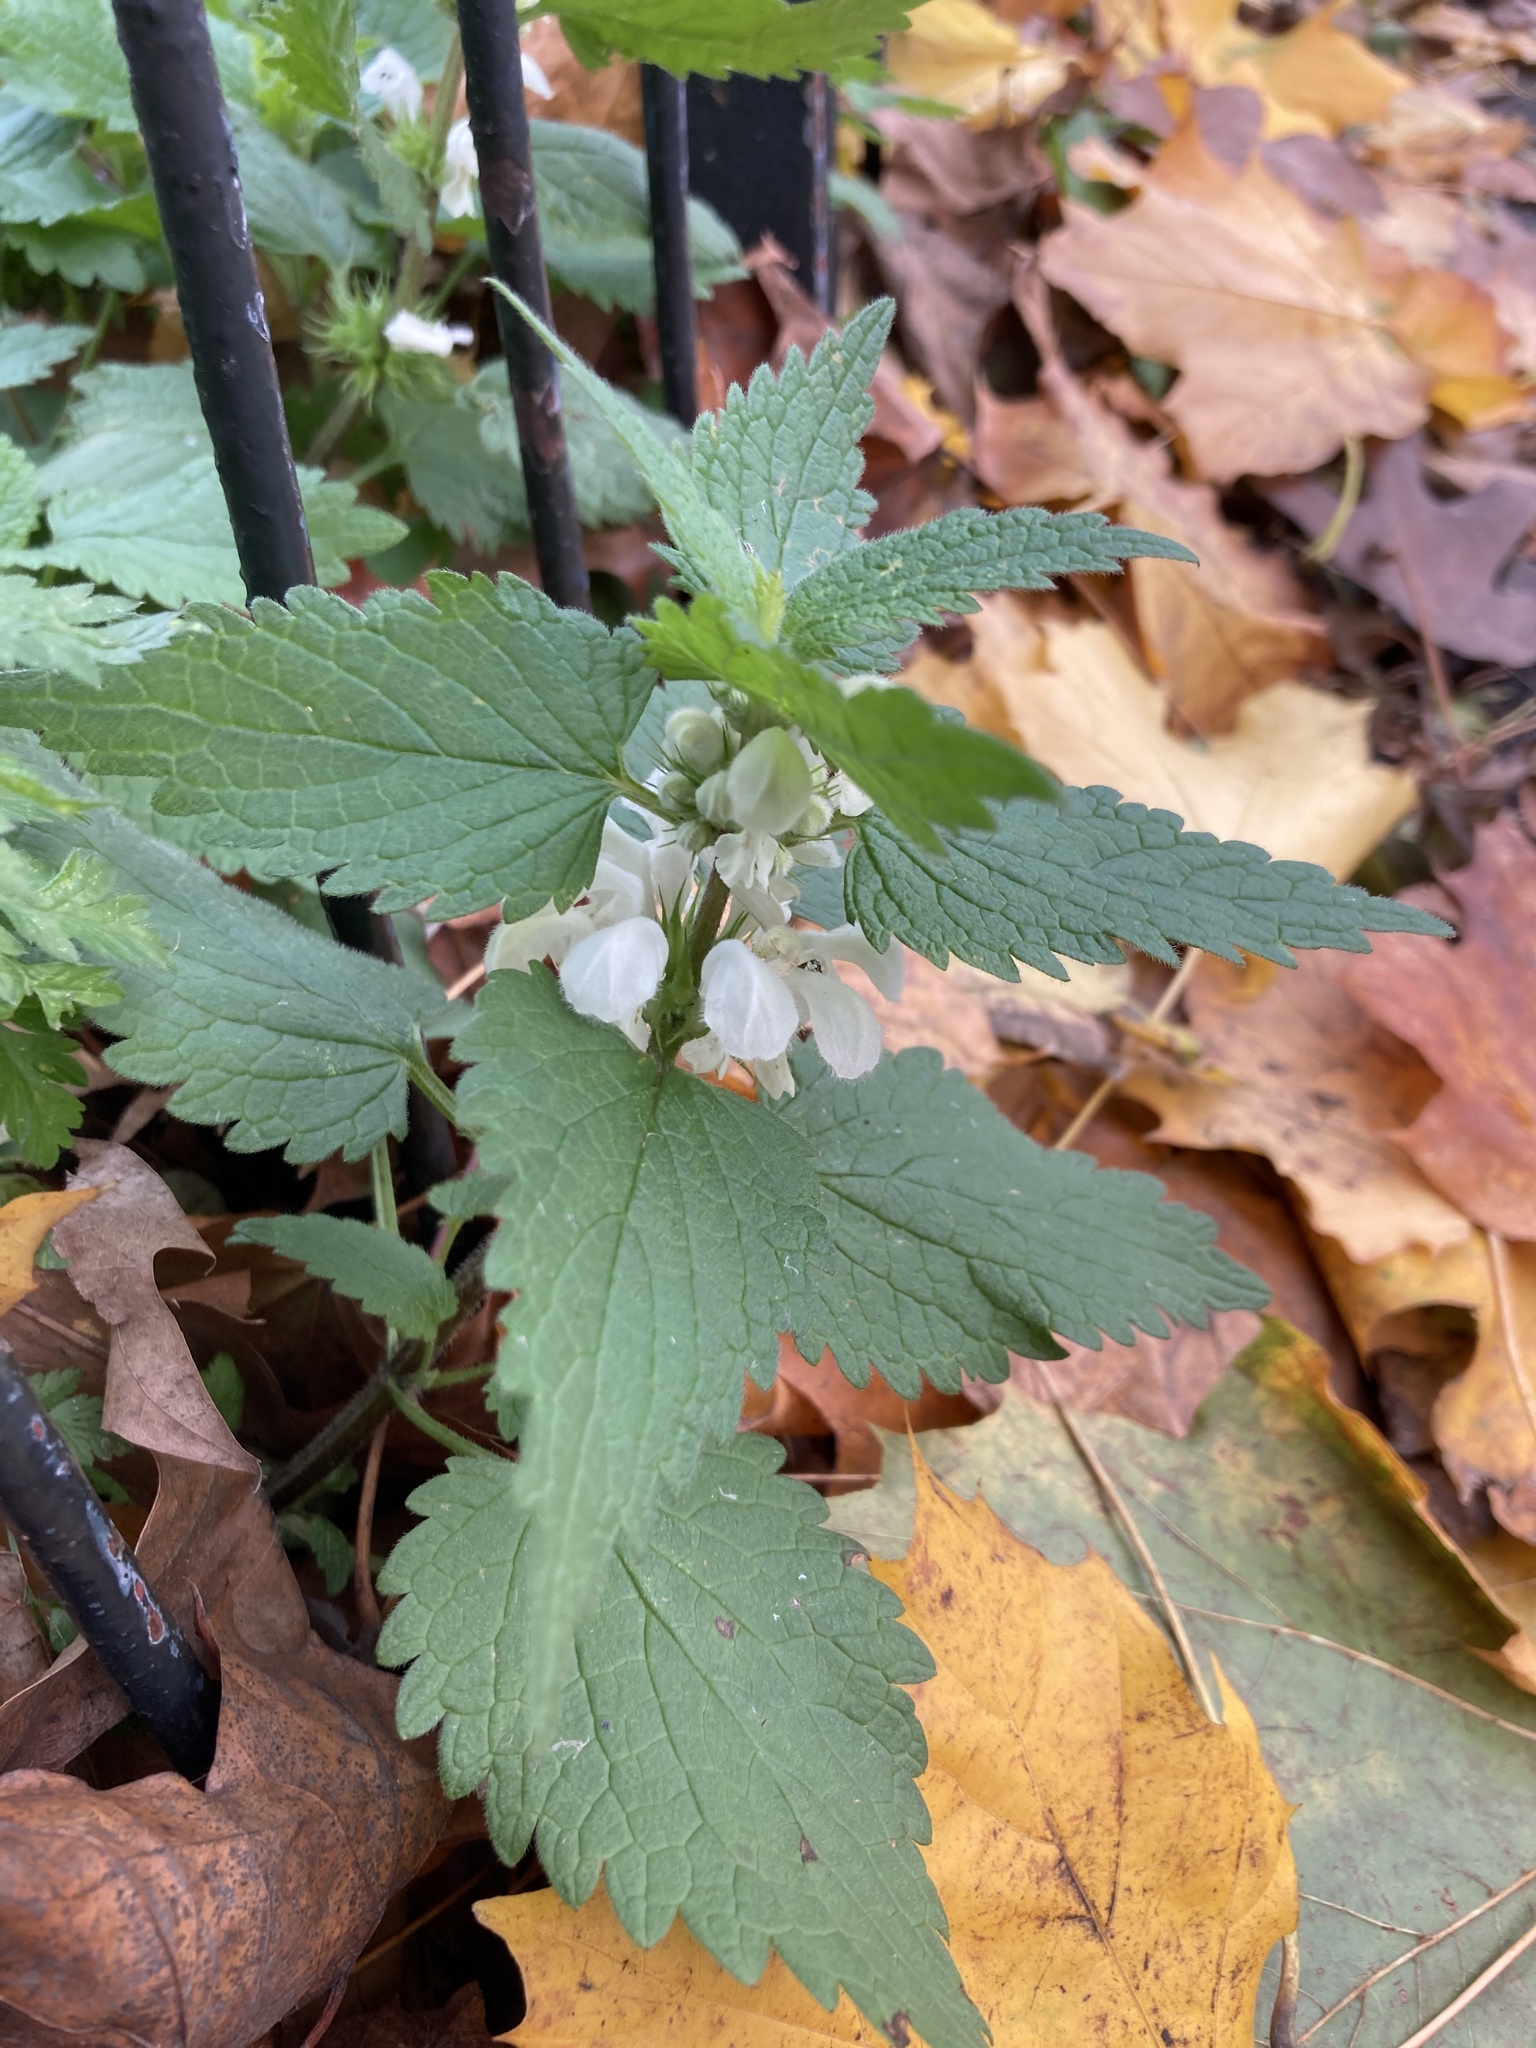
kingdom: Plantae
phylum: Tracheophyta
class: Magnoliopsida
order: Lamiales
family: Lamiaceae
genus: Lamium
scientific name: Lamium album
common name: White dead-nettle
